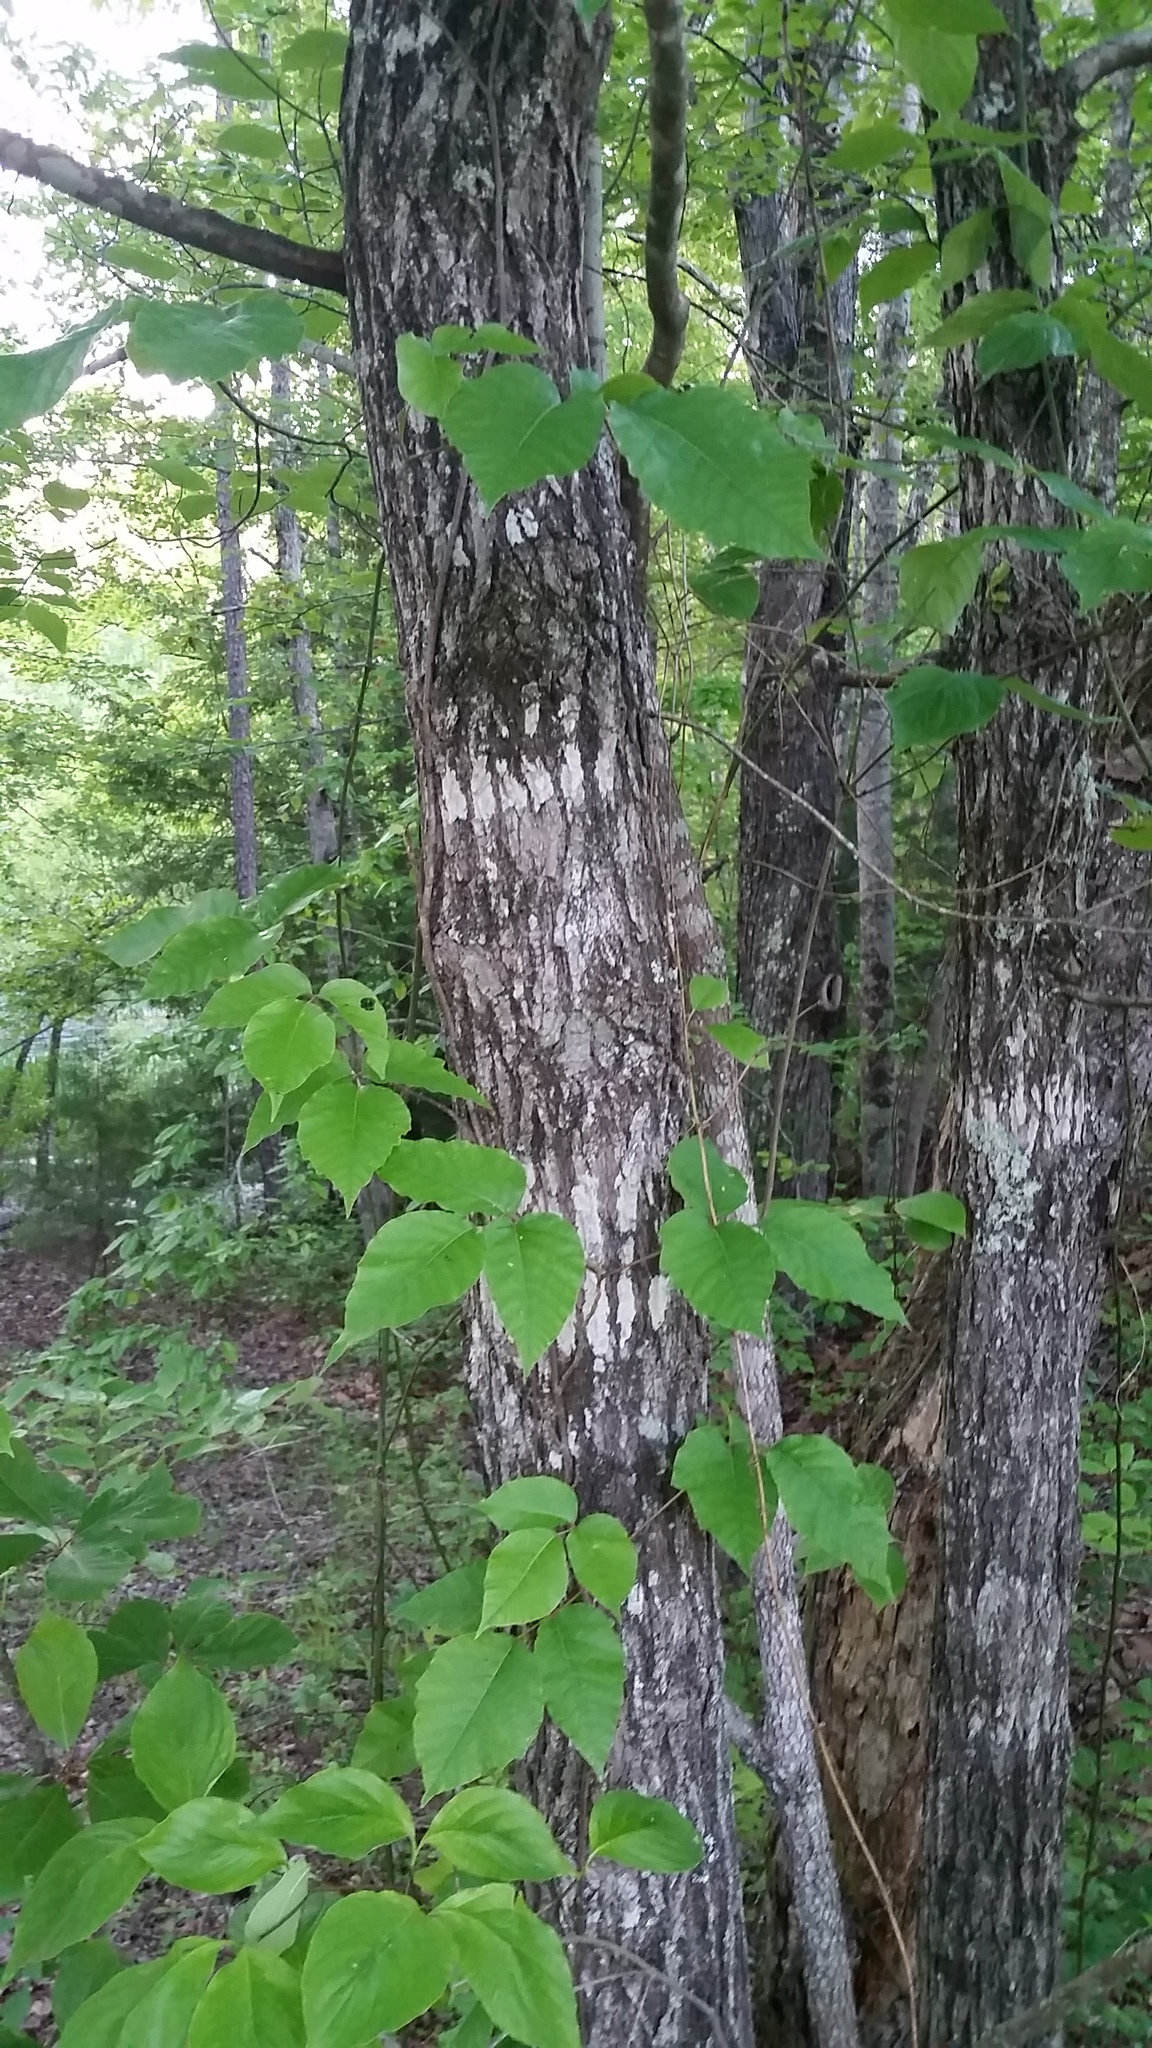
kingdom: Plantae
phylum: Tracheophyta
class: Magnoliopsida
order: Cornales
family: Nyssaceae
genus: Nyssa
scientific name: Nyssa sylvatica
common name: Black tupelo
